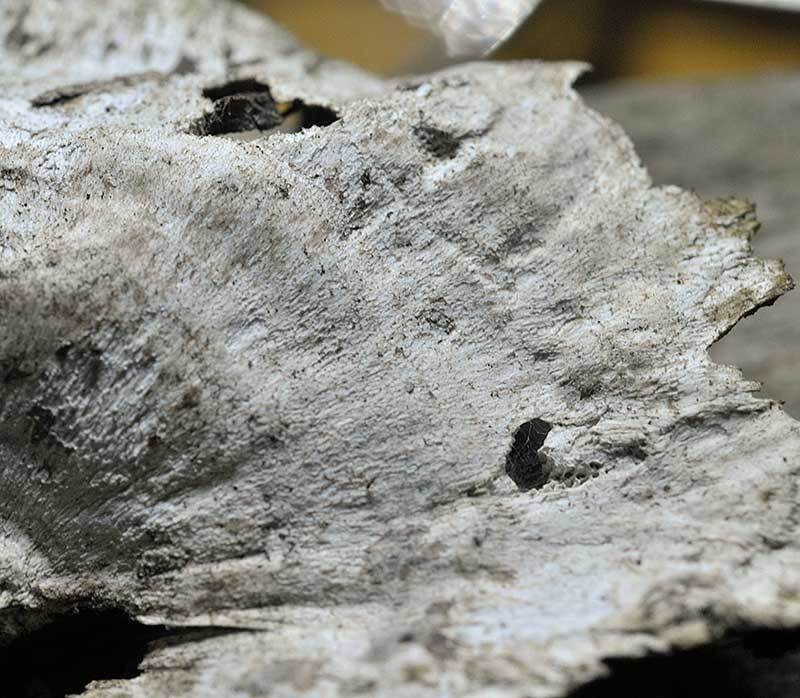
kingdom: Fungi
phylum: Basidiomycota
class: Agaricomycetes
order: Polyporales
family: Polyporaceae
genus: Poronidulus
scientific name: Poronidulus conchifer
